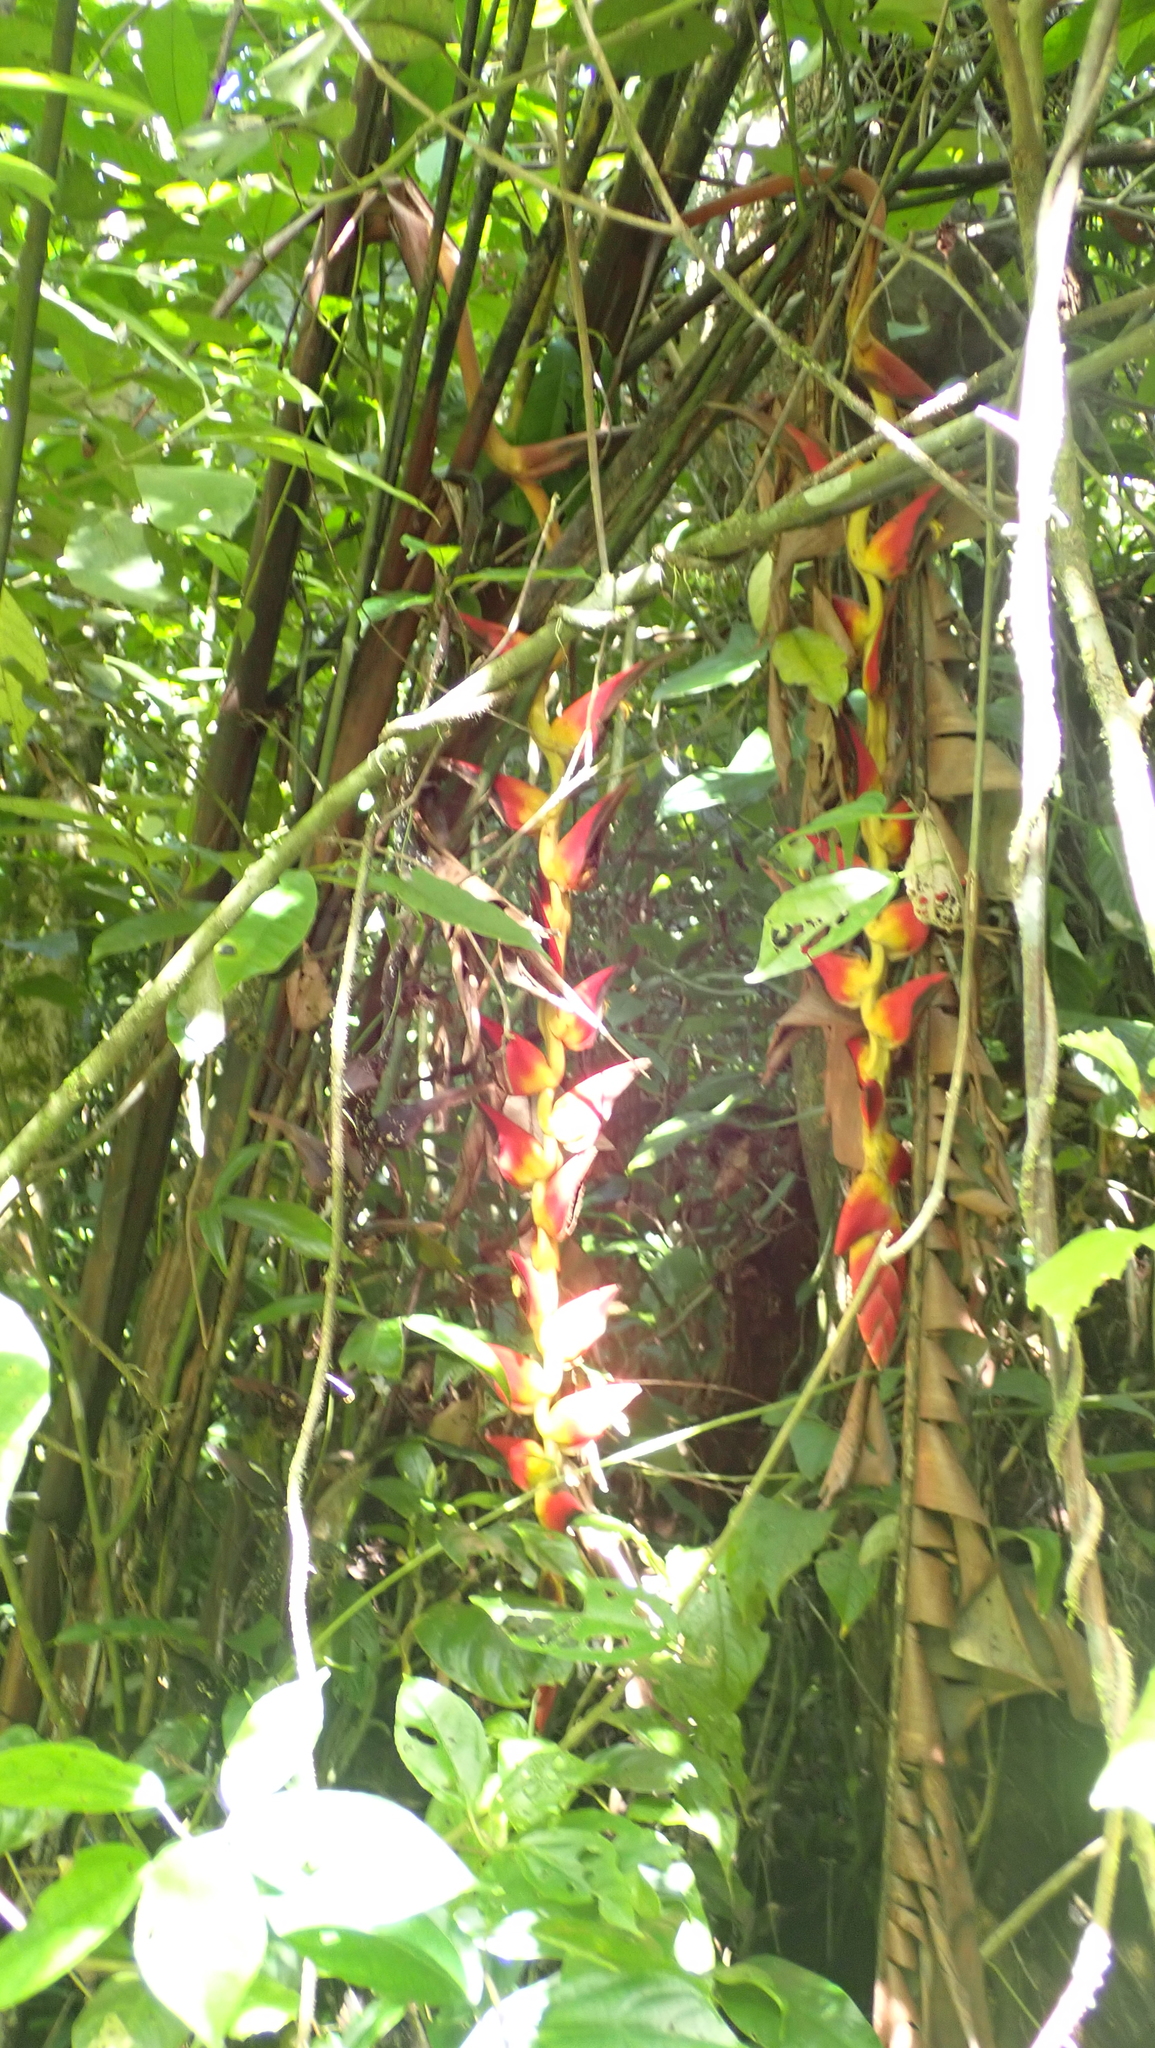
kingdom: Plantae
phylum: Tracheophyta
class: Liliopsida
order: Zingiberales
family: Heliconiaceae
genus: Heliconia
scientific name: Heliconia pogonantha
